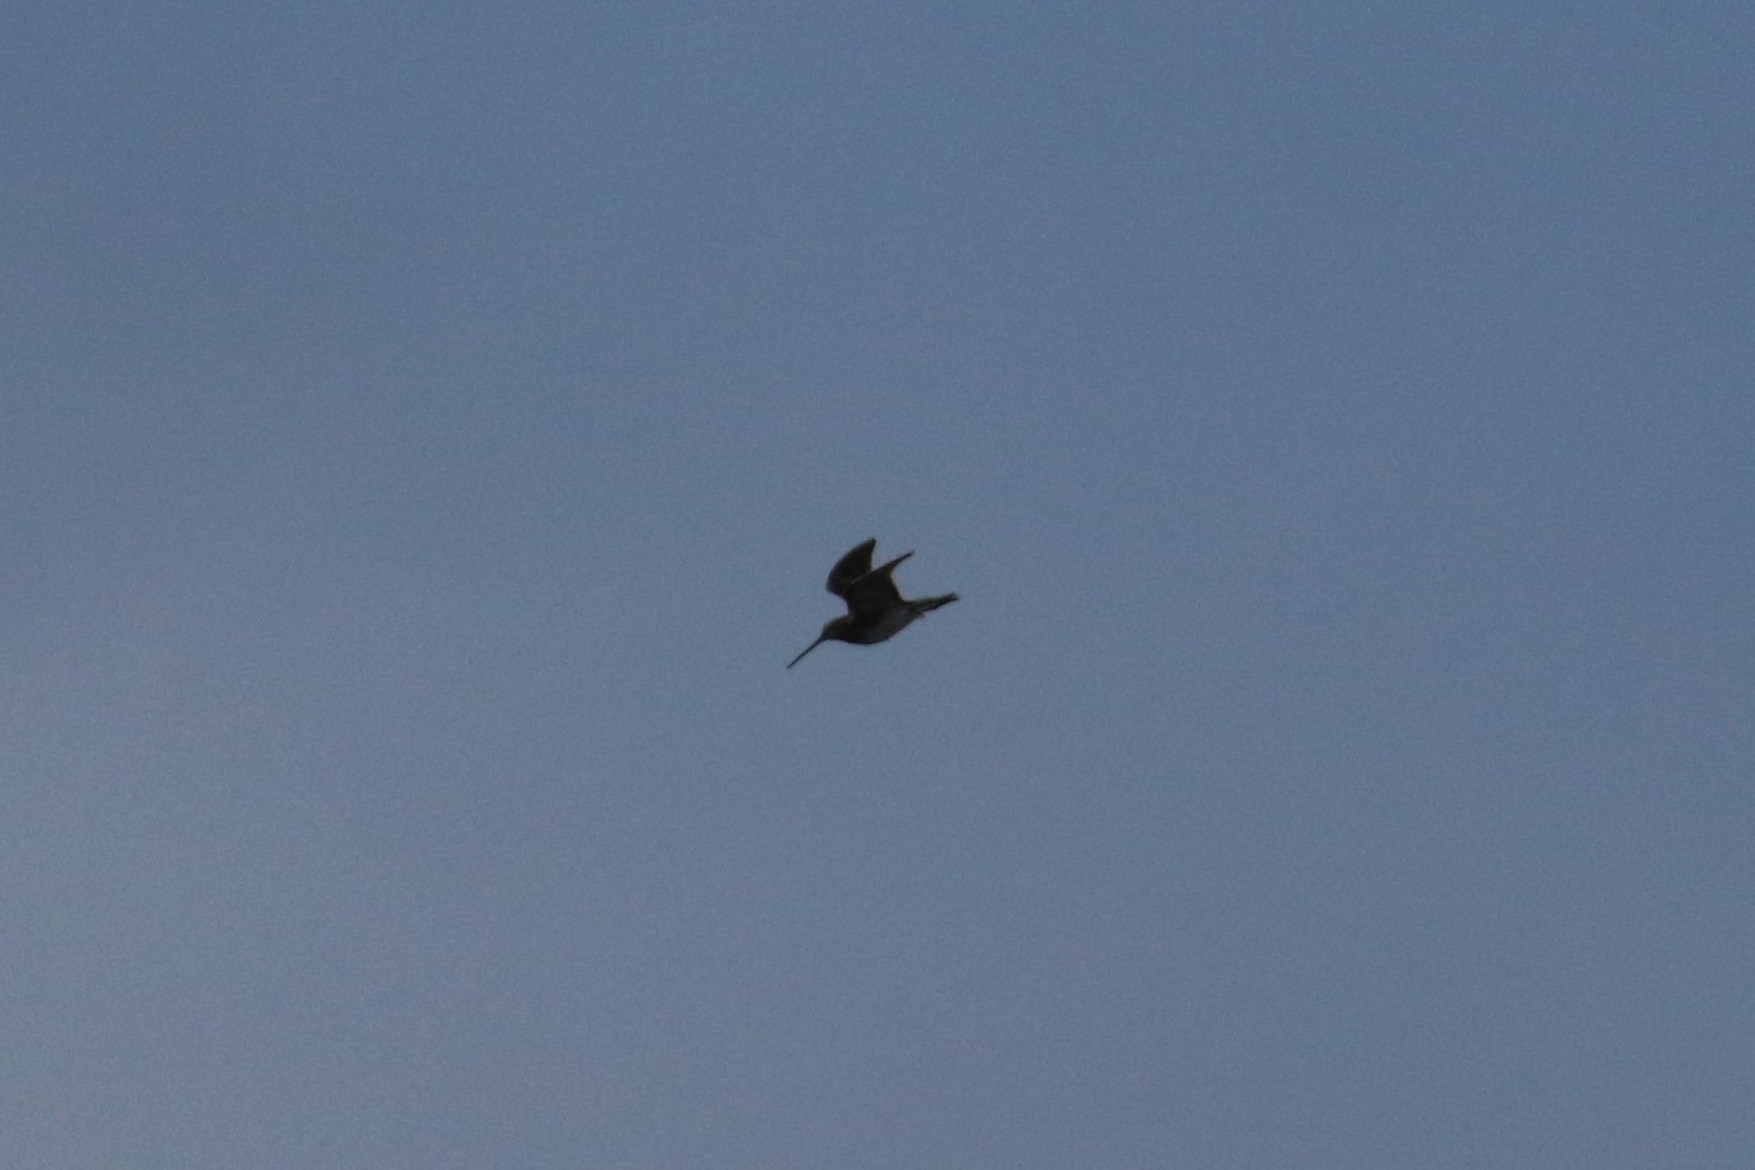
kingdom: Animalia
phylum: Chordata
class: Aves
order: Charadriiformes
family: Scolopacidae
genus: Gallinago
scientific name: Gallinago gallinago
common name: Common snipe
